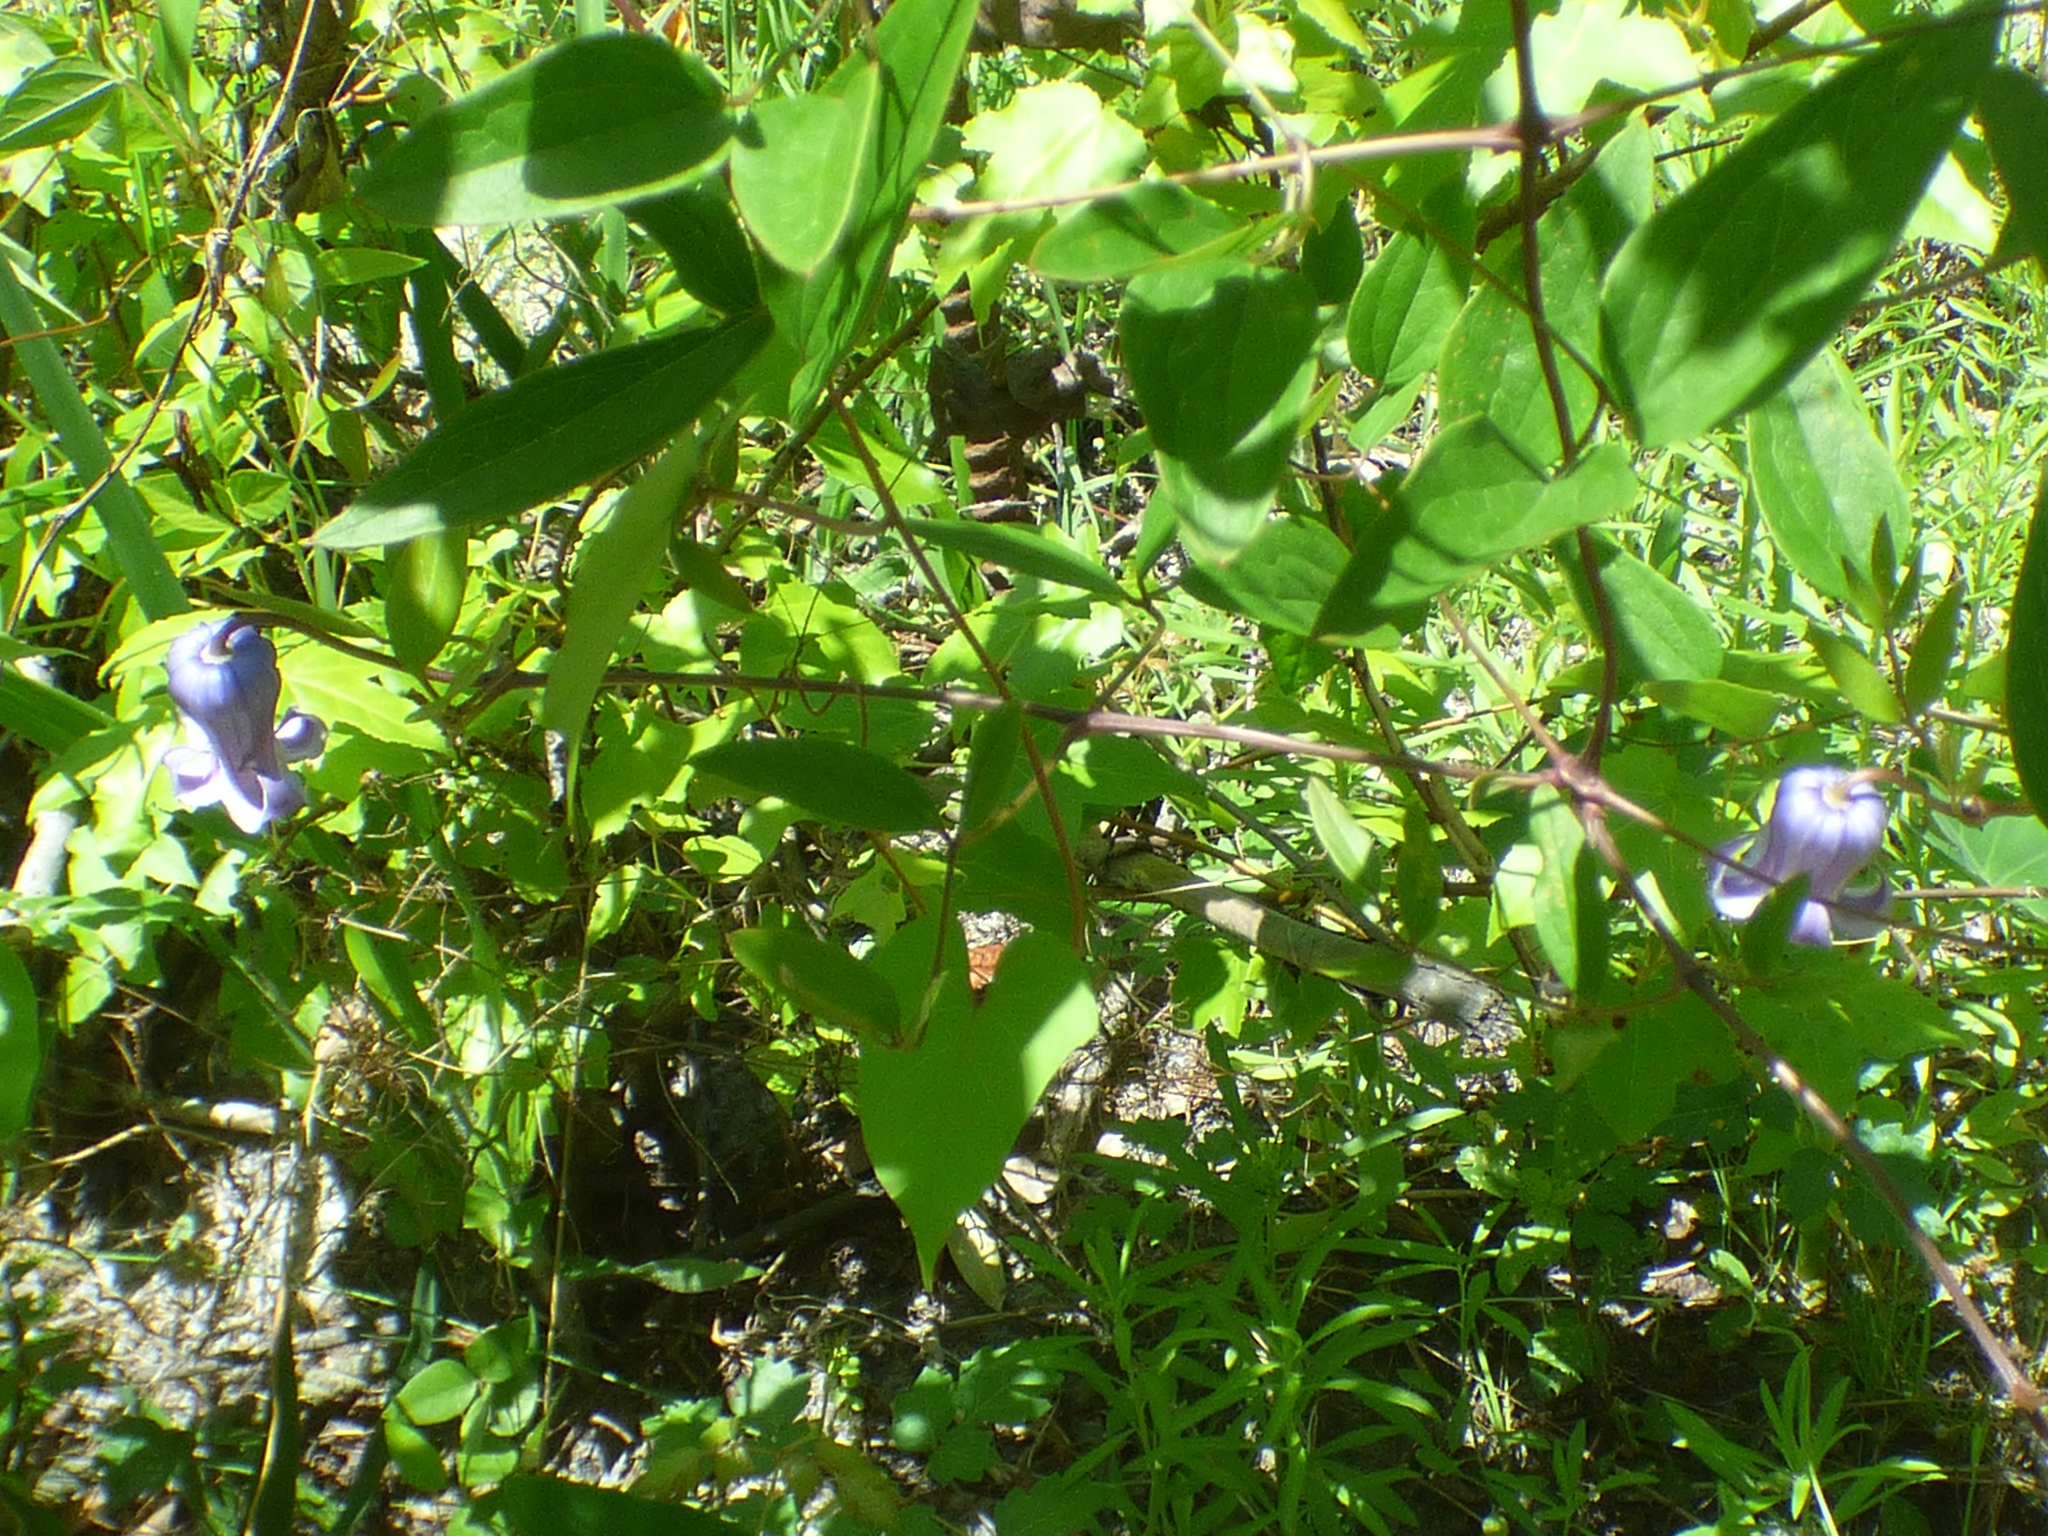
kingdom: Plantae
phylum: Tracheophyta
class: Magnoliopsida
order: Ranunculales
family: Ranunculaceae
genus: Clematis
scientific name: Clematis crispa
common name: Curly clematis
